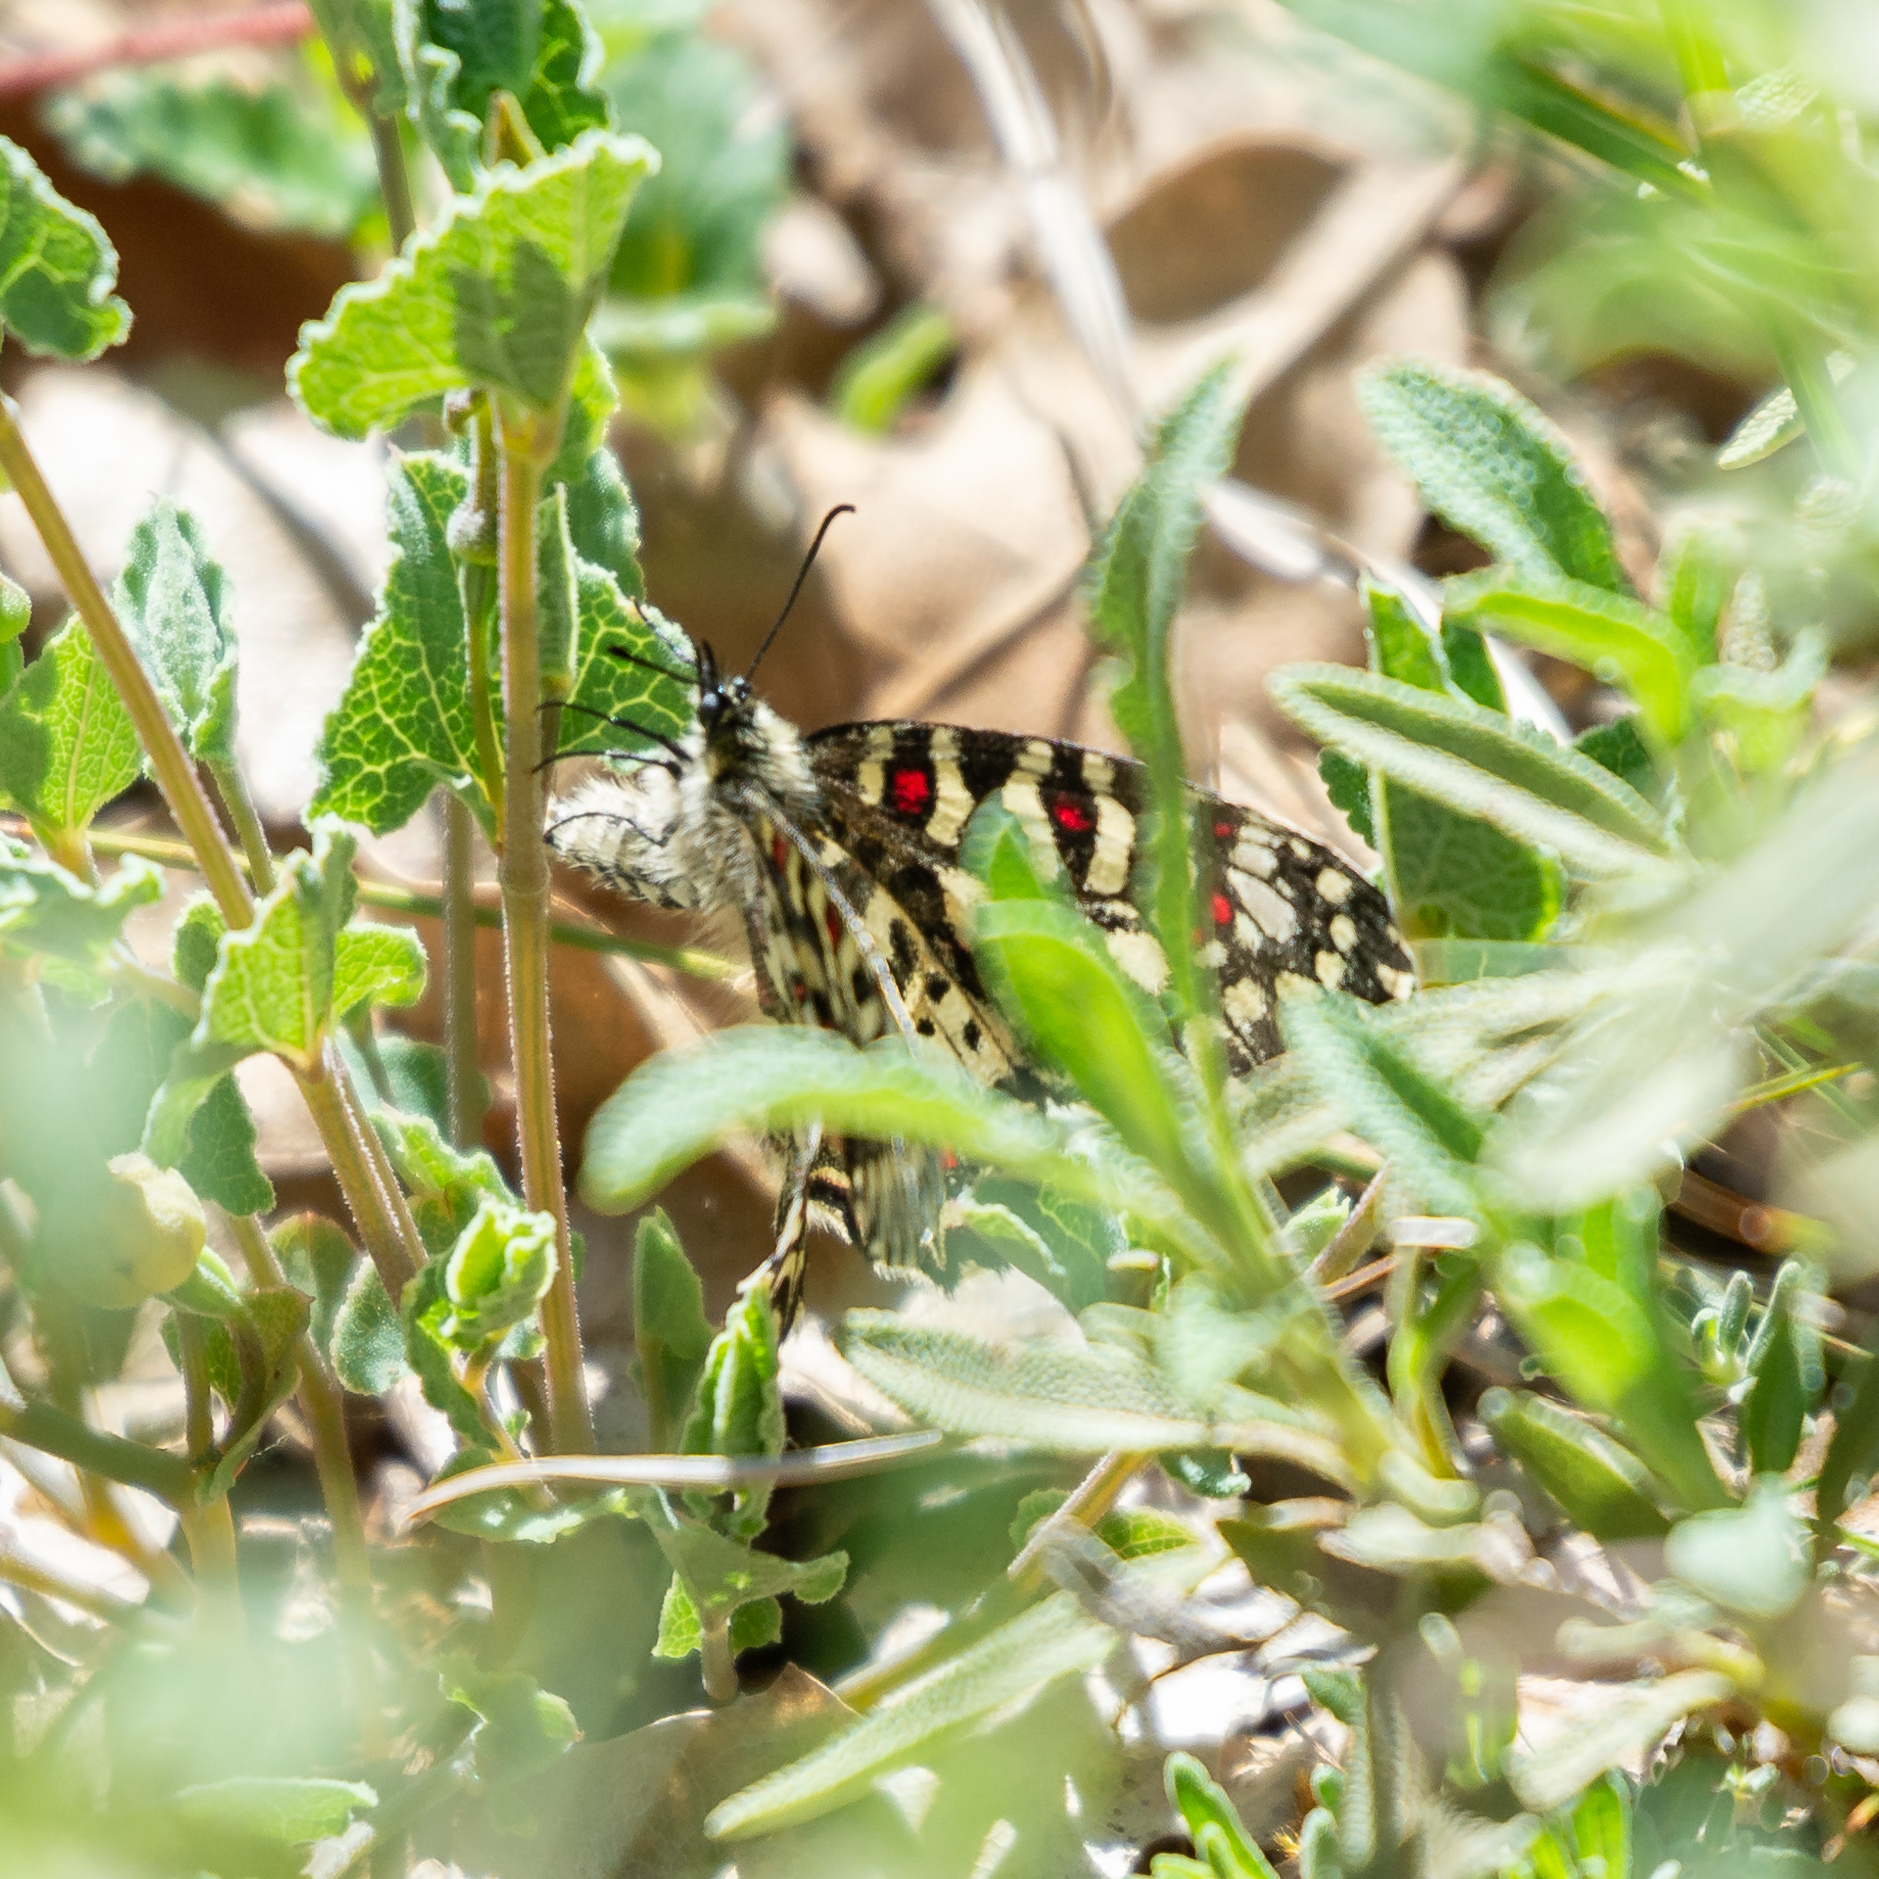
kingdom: Animalia
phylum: Arthropoda
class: Insecta
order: Lepidoptera
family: Papilionidae
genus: Zerynthia
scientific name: Zerynthia rumina
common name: Spanish festoon
